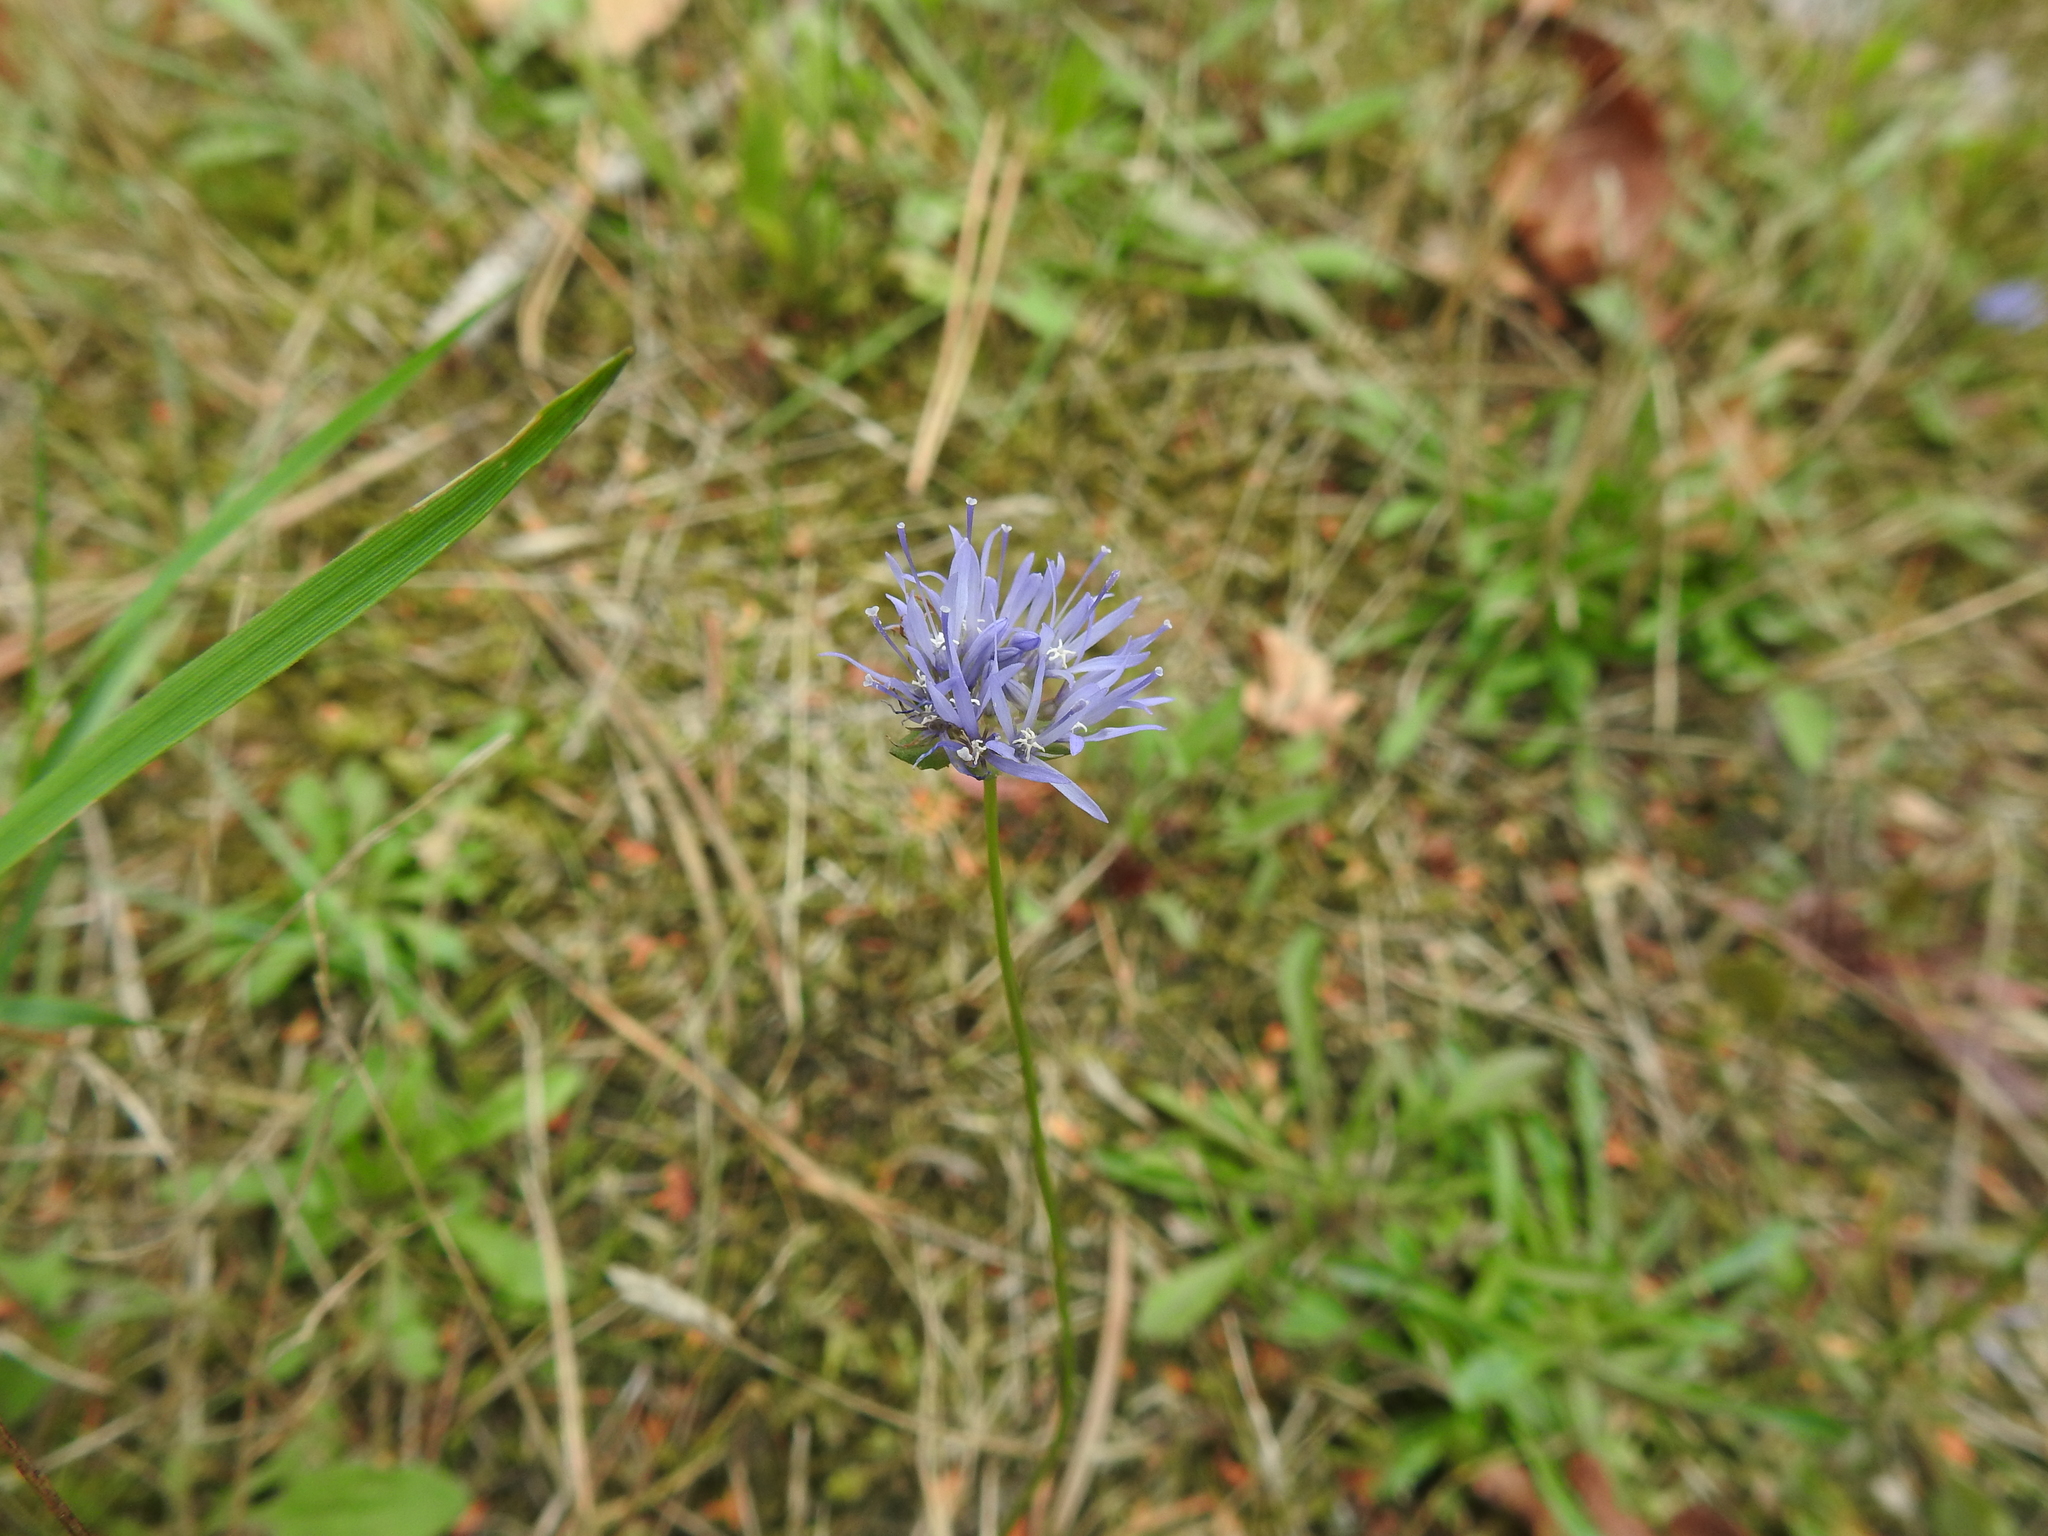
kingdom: Plantae
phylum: Tracheophyta
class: Magnoliopsida
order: Asterales
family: Campanulaceae
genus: Jasione
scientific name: Jasione montana
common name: Sheep's-bit
